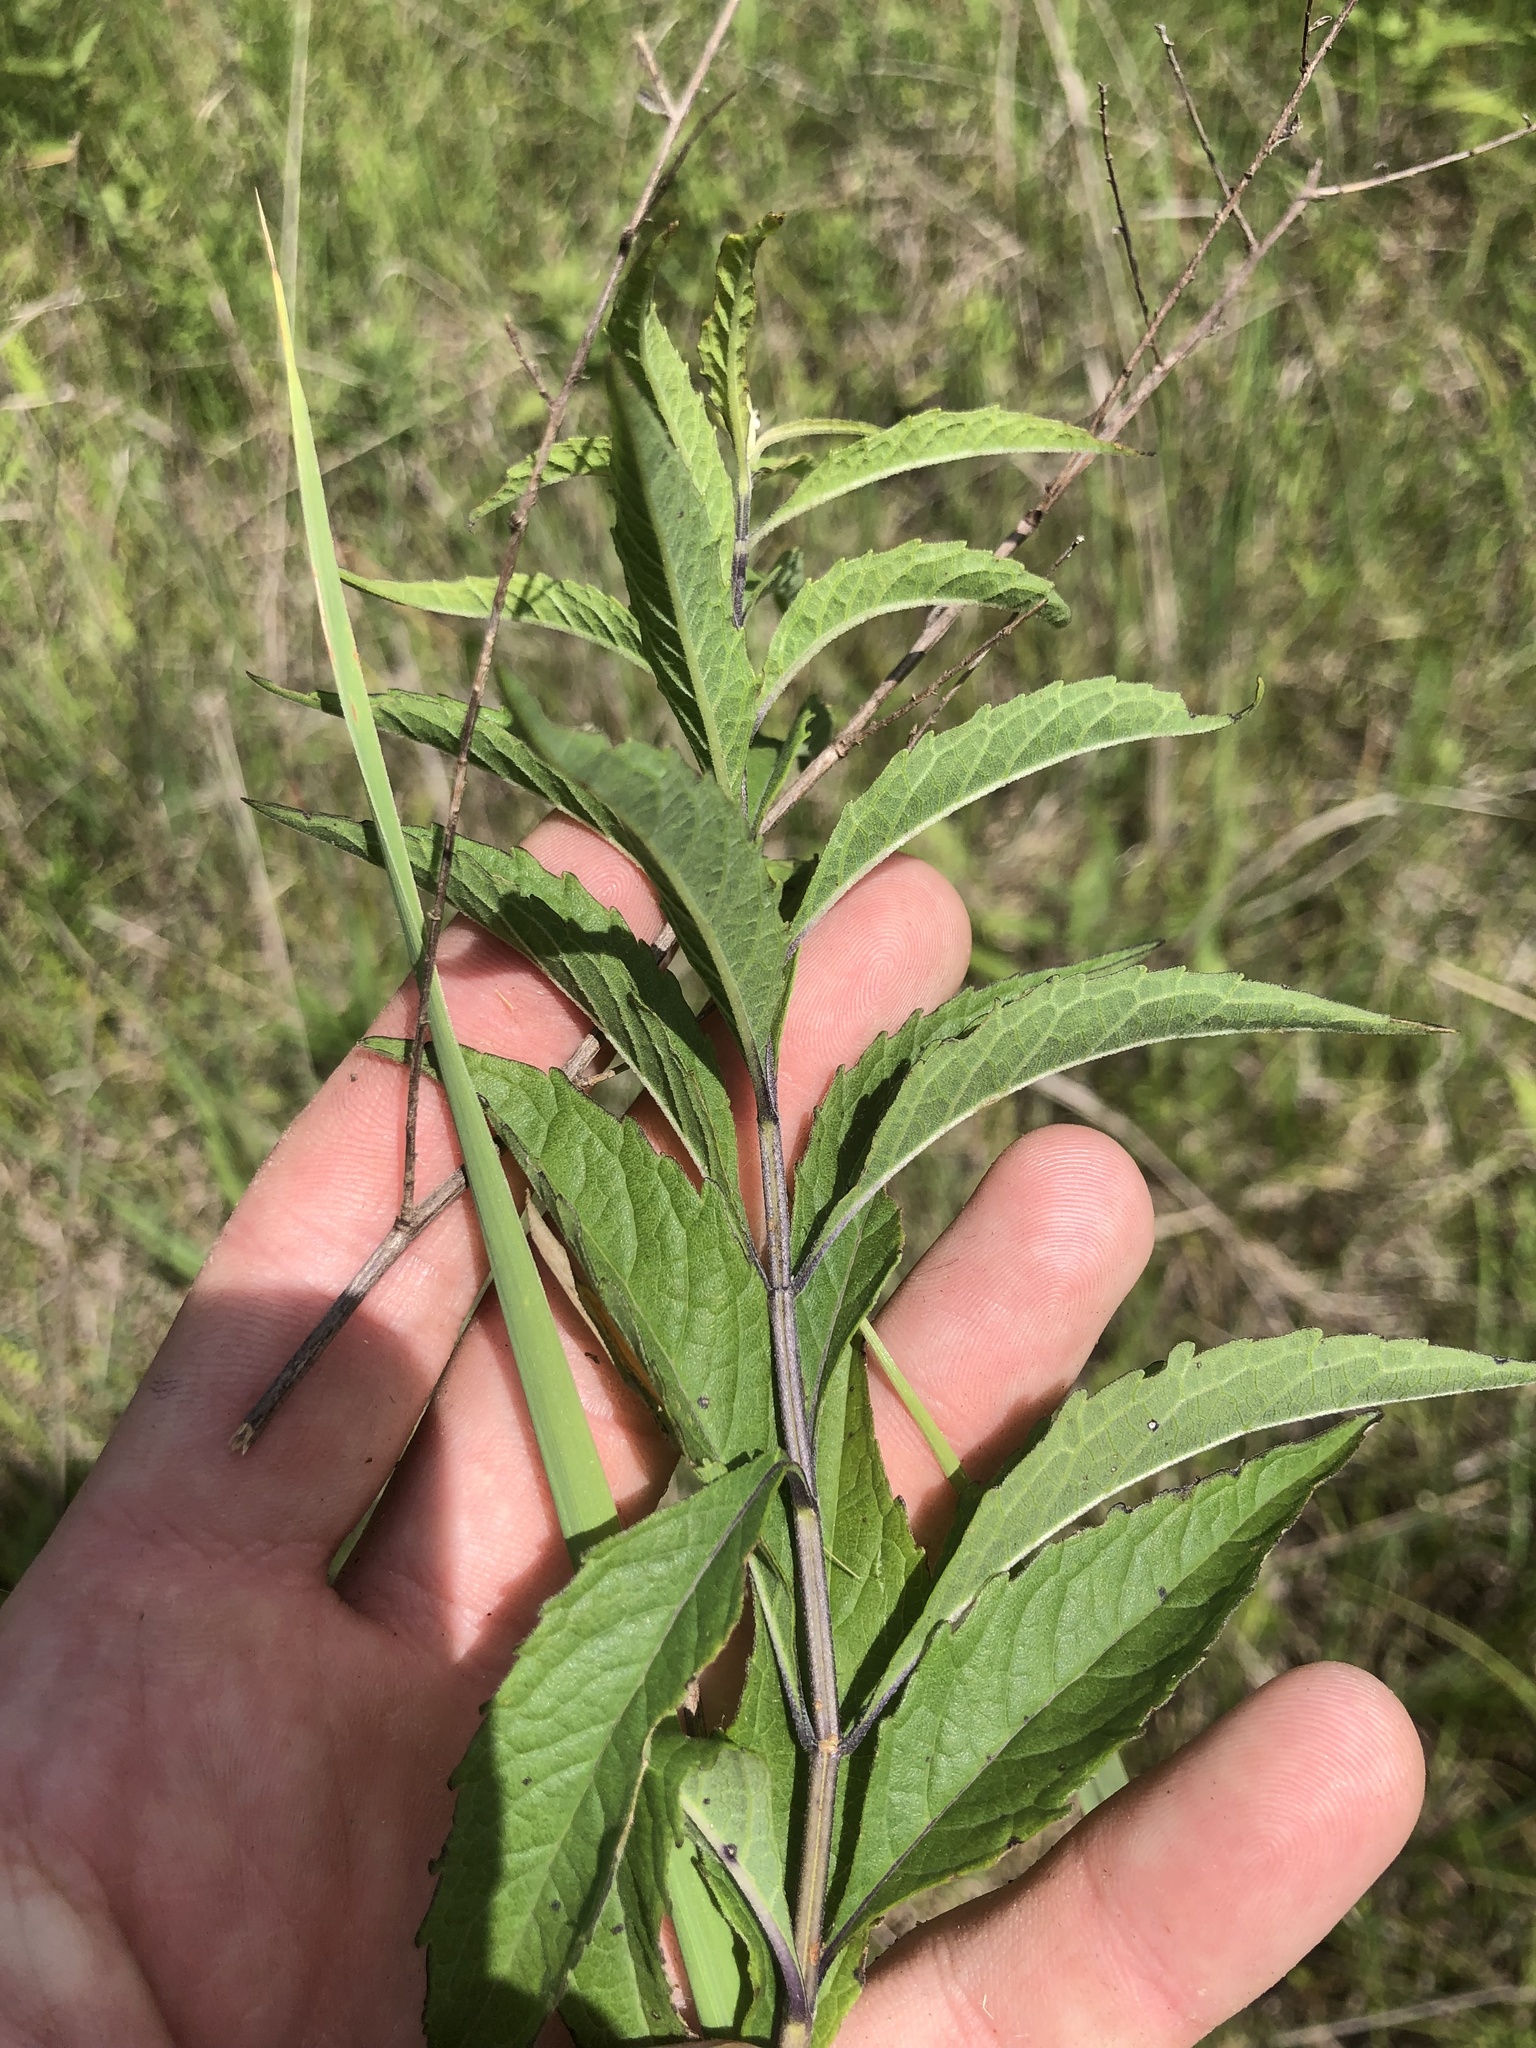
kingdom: Plantae
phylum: Tracheophyta
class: Magnoliopsida
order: Lamiales
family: Lamiaceae
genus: Salvia
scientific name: Salvia azurea
